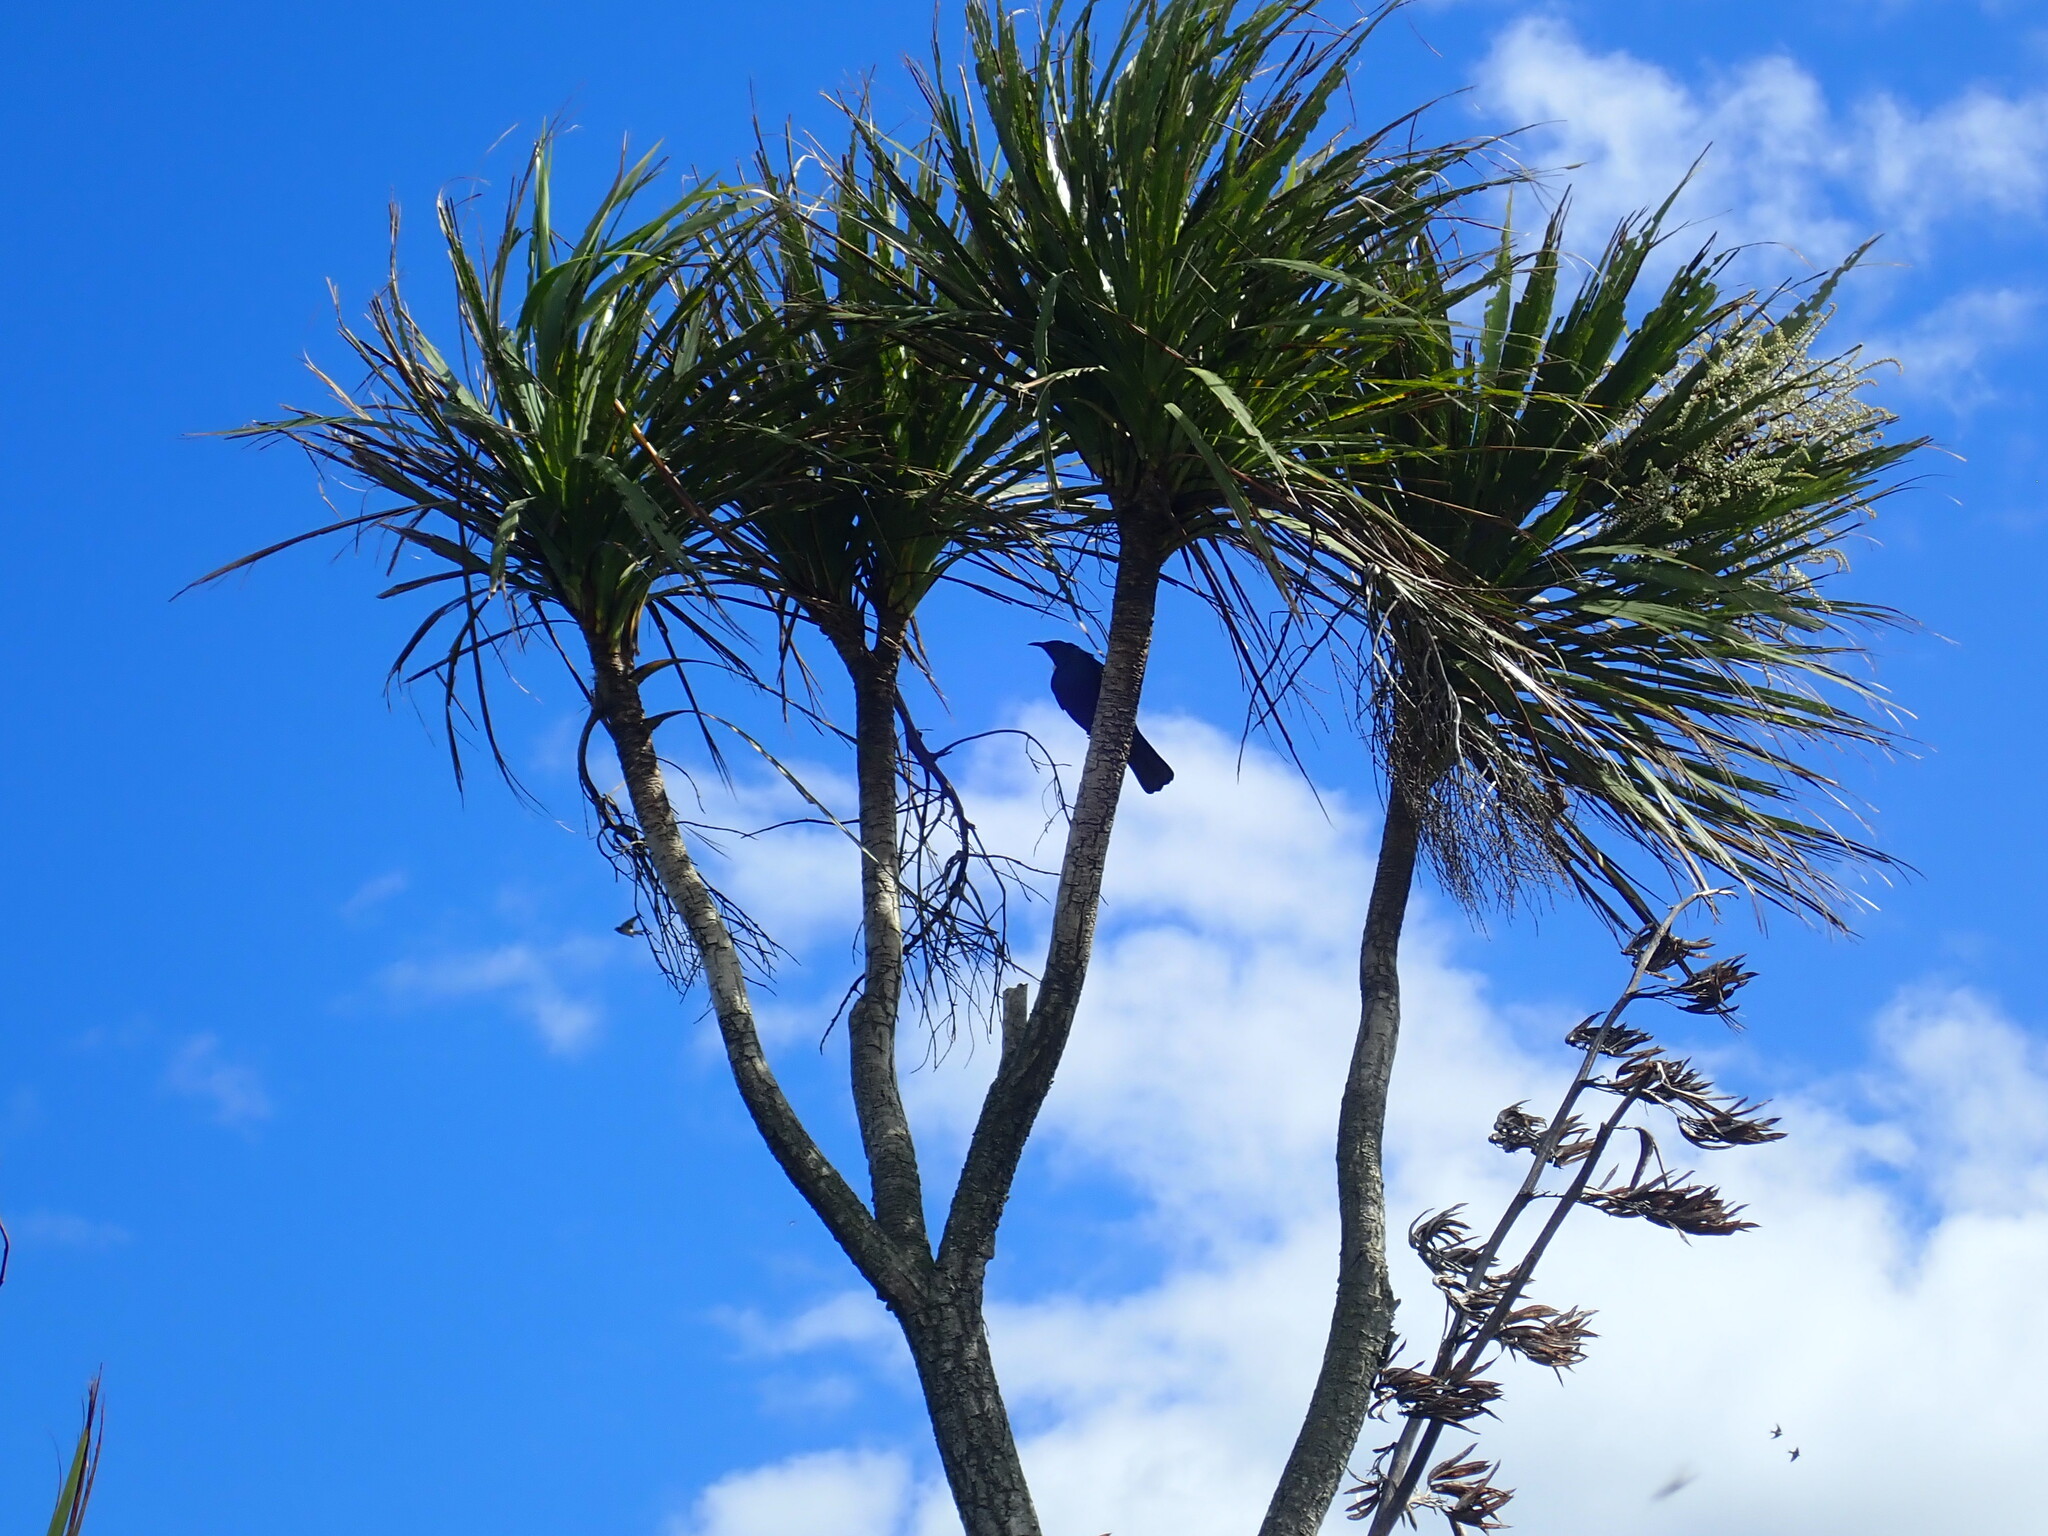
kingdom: Animalia
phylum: Chordata
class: Aves
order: Passeriformes
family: Meliphagidae
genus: Prosthemadera
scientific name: Prosthemadera novaeseelandiae
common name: Tui
